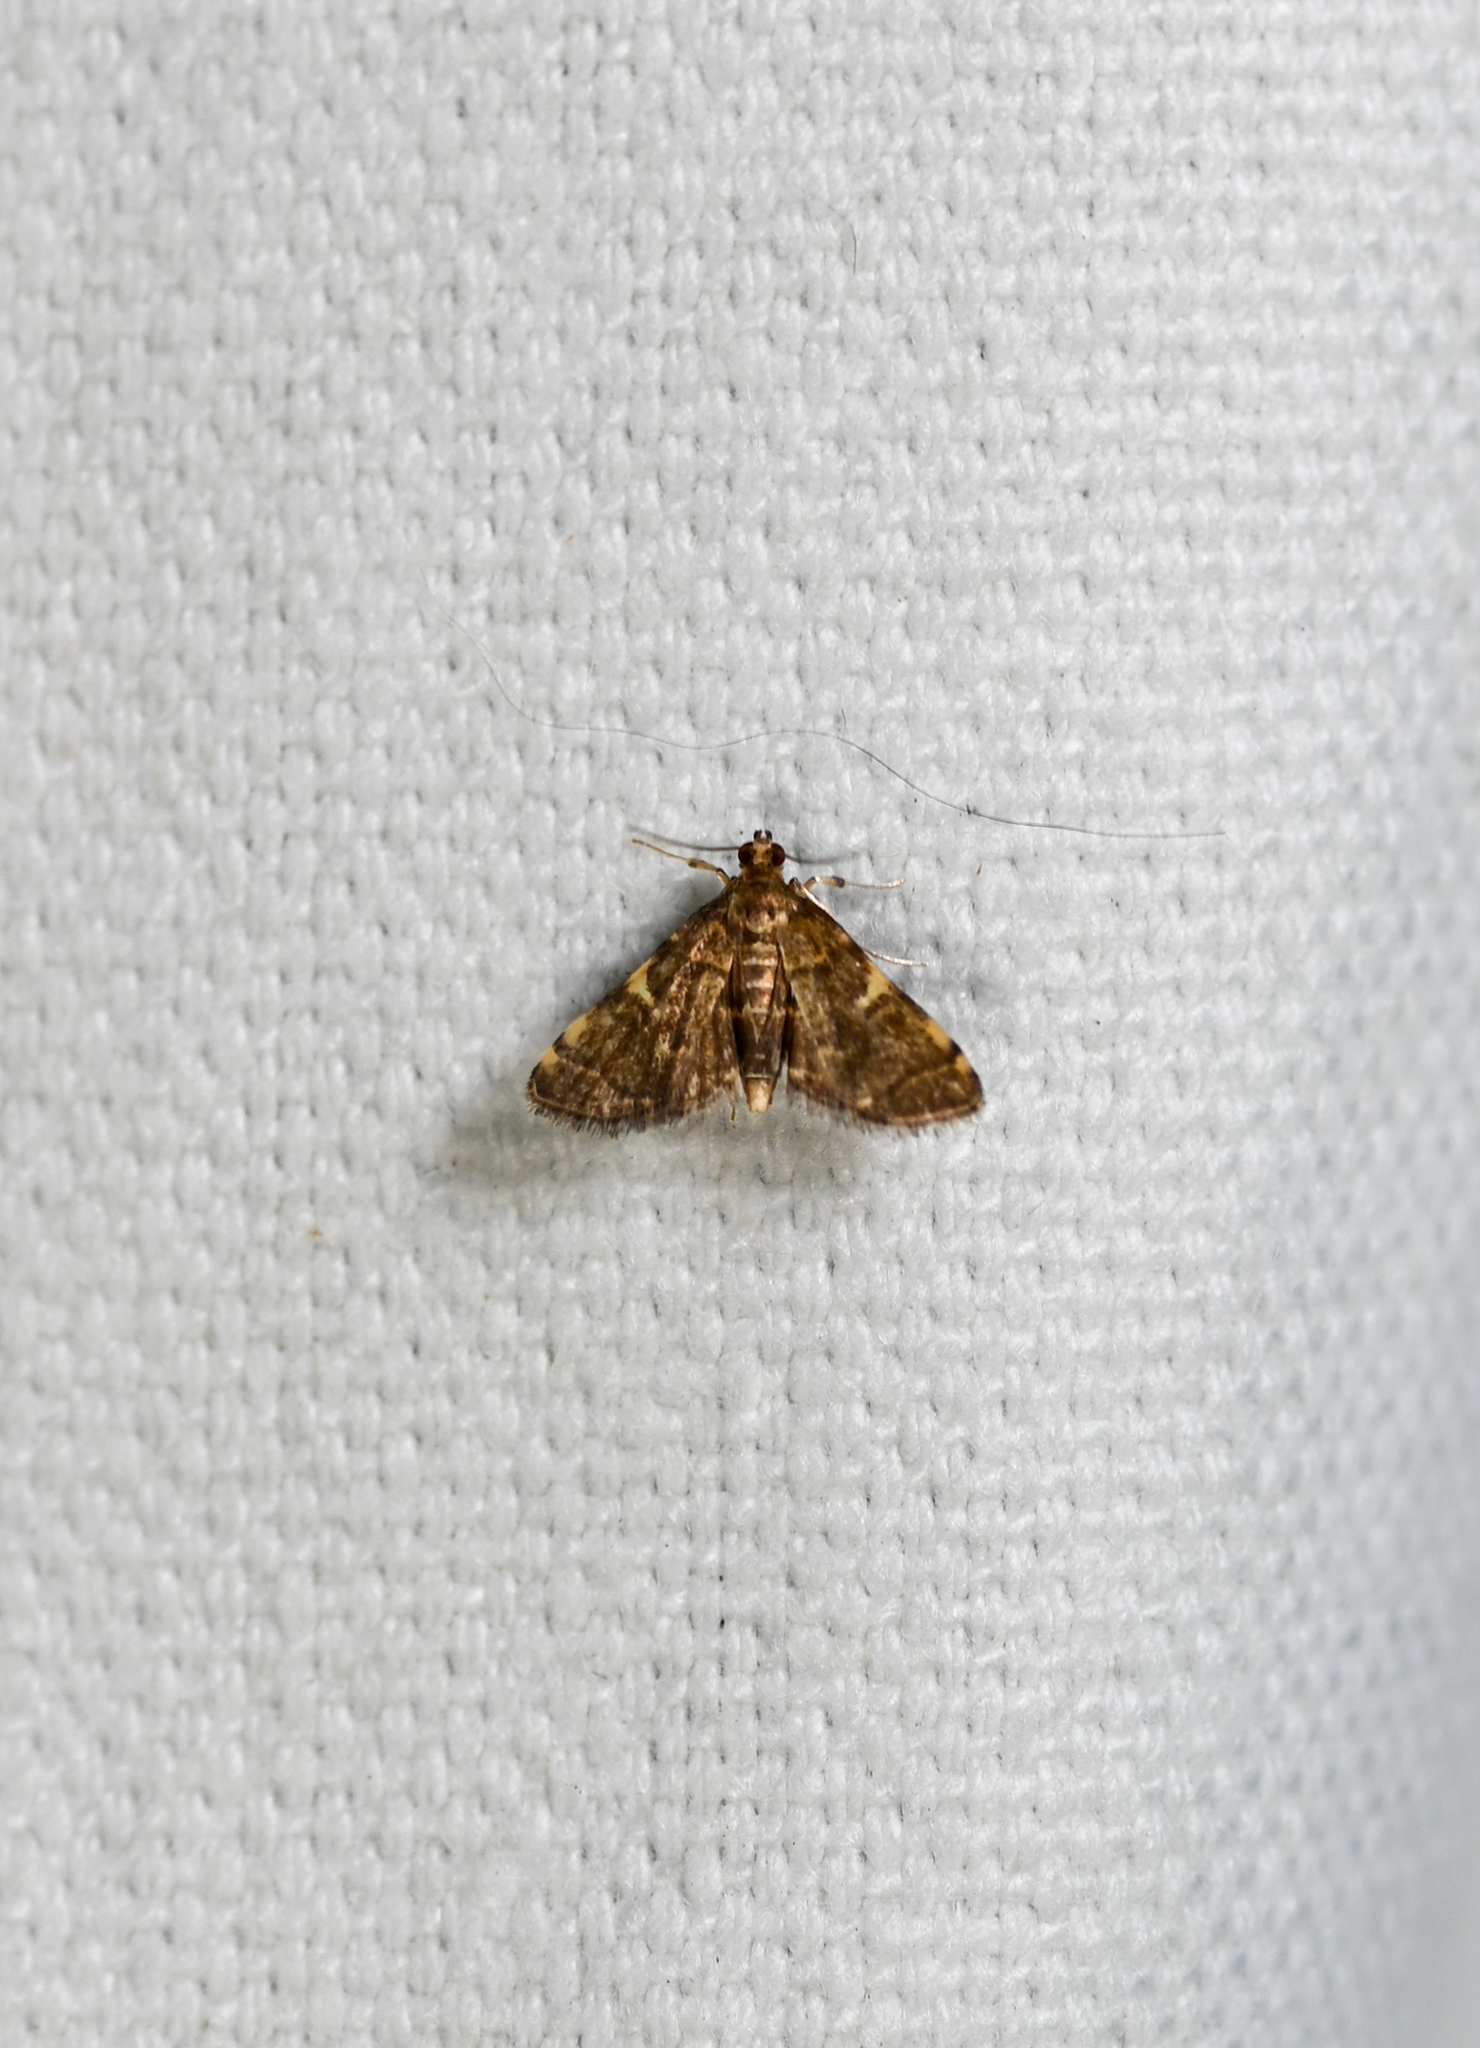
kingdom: Animalia
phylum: Arthropoda
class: Insecta
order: Lepidoptera
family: Crambidae
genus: Anageshna
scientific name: Anageshna primordialis
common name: Yellow-spotted webworm moth
